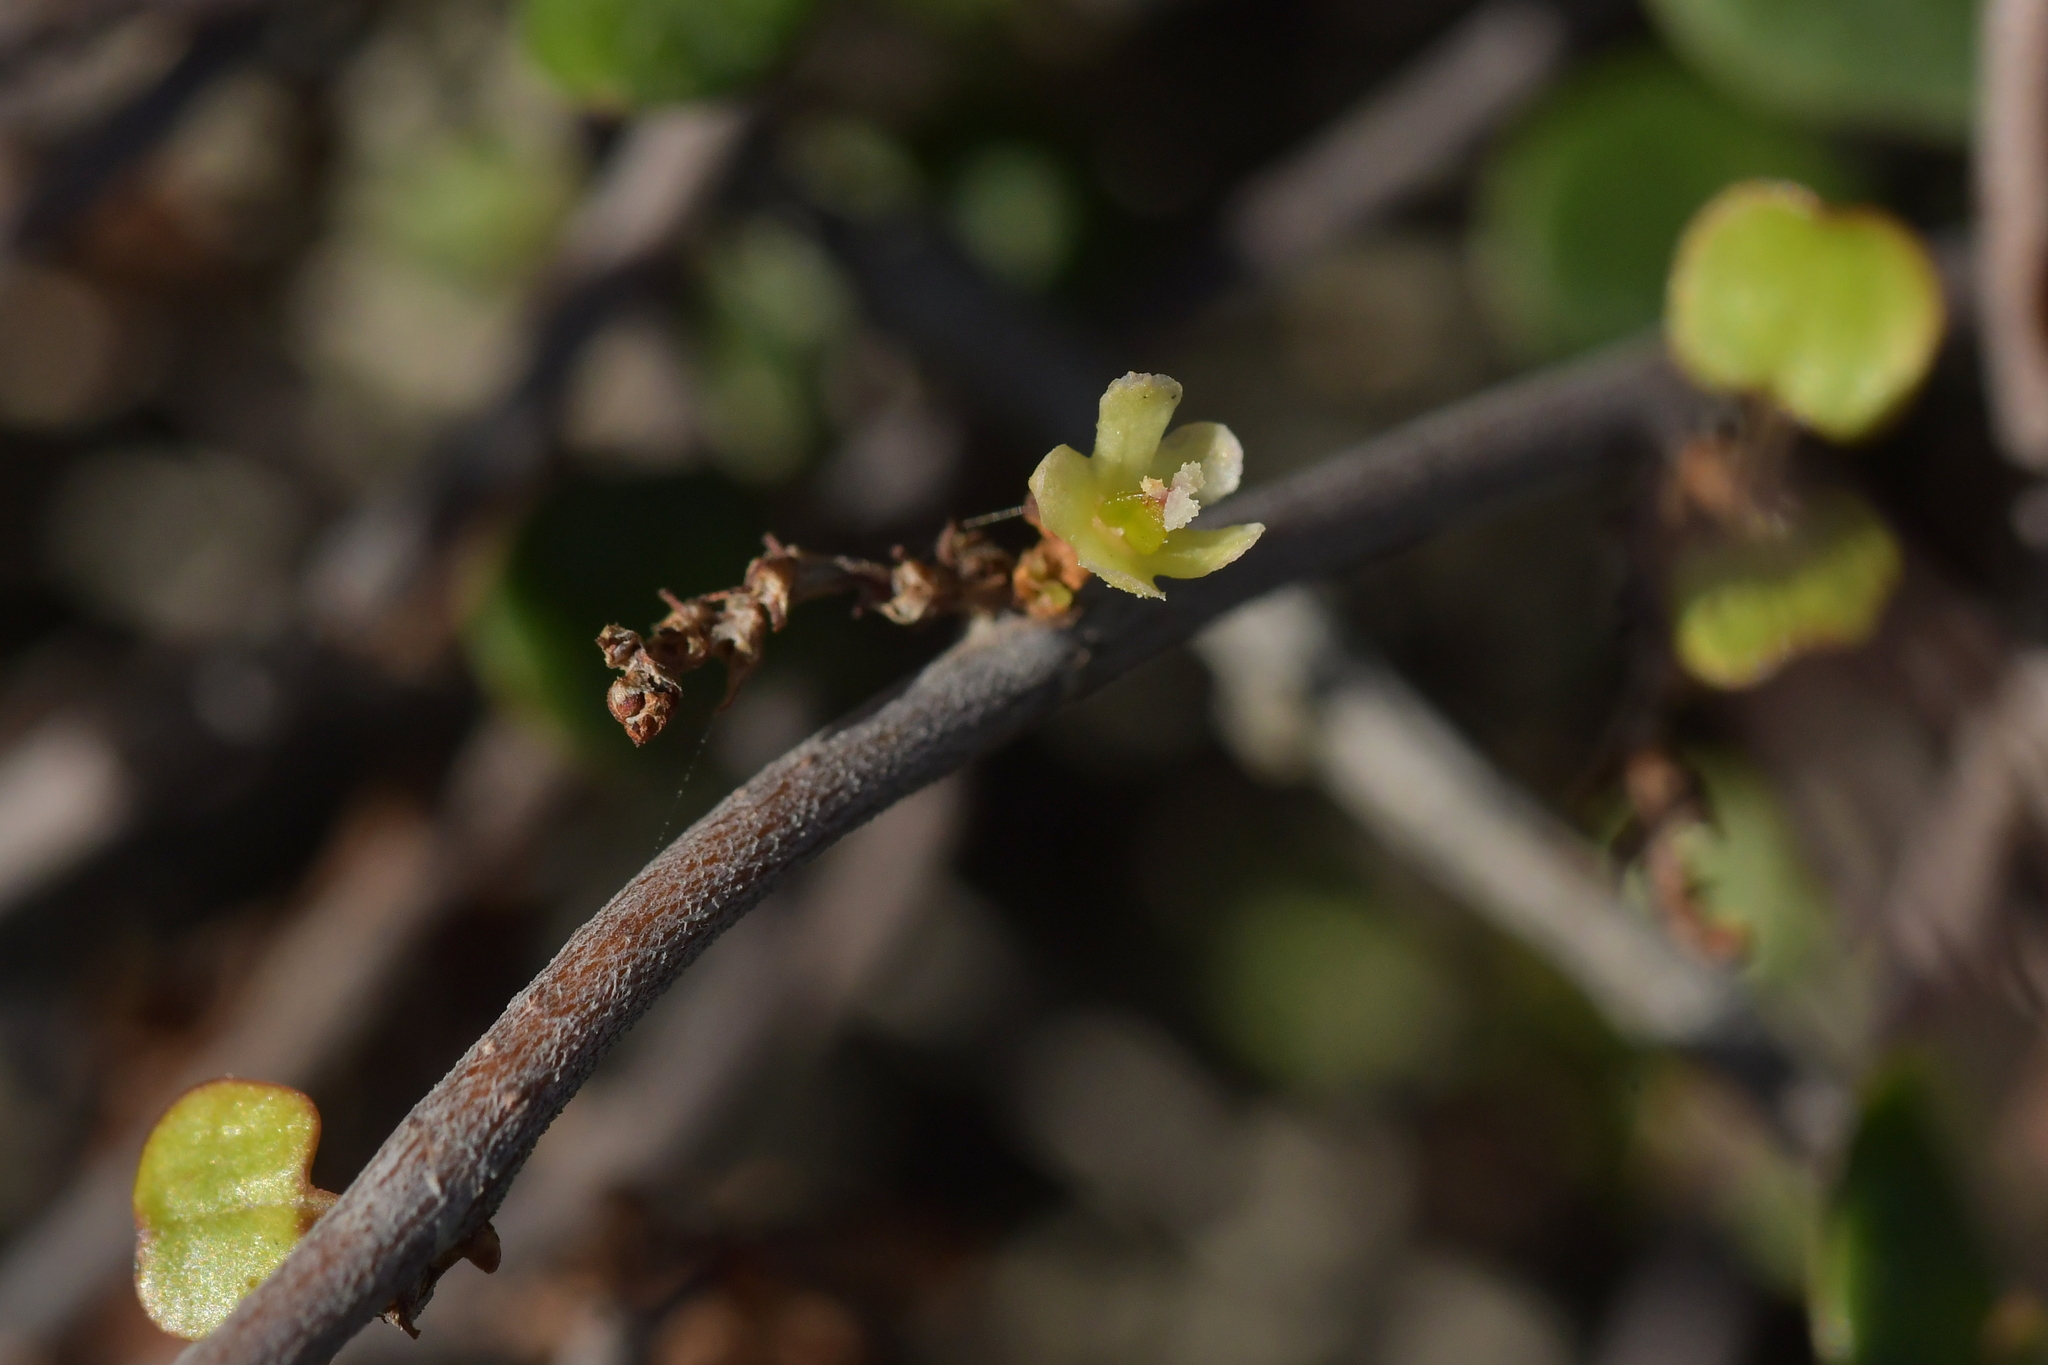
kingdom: Plantae
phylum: Tracheophyta
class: Magnoliopsida
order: Caryophyllales
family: Polygonaceae
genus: Muehlenbeckia
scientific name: Muehlenbeckia complexa
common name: Wireplant
